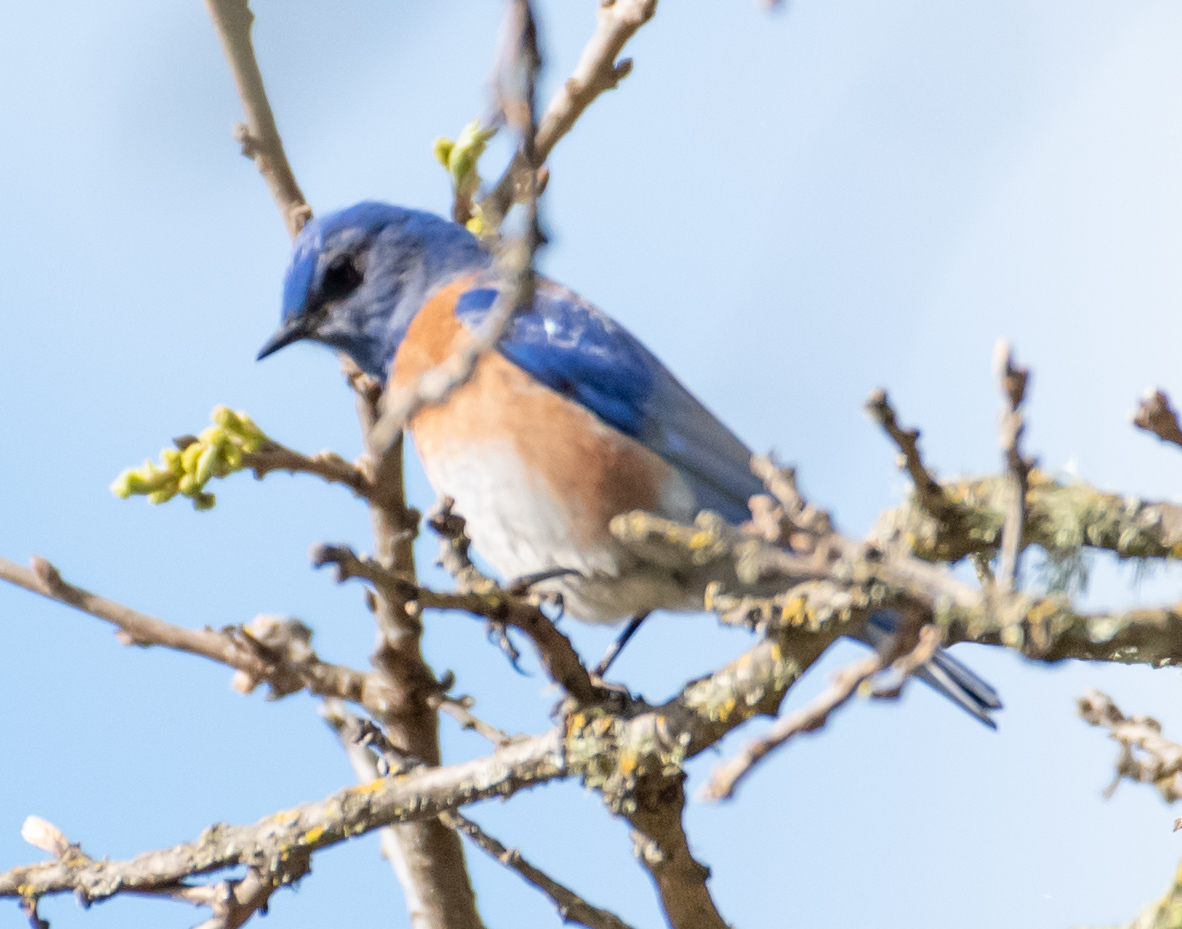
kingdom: Animalia
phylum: Chordata
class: Aves
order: Passeriformes
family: Turdidae
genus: Sialia
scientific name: Sialia mexicana
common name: Western bluebird
